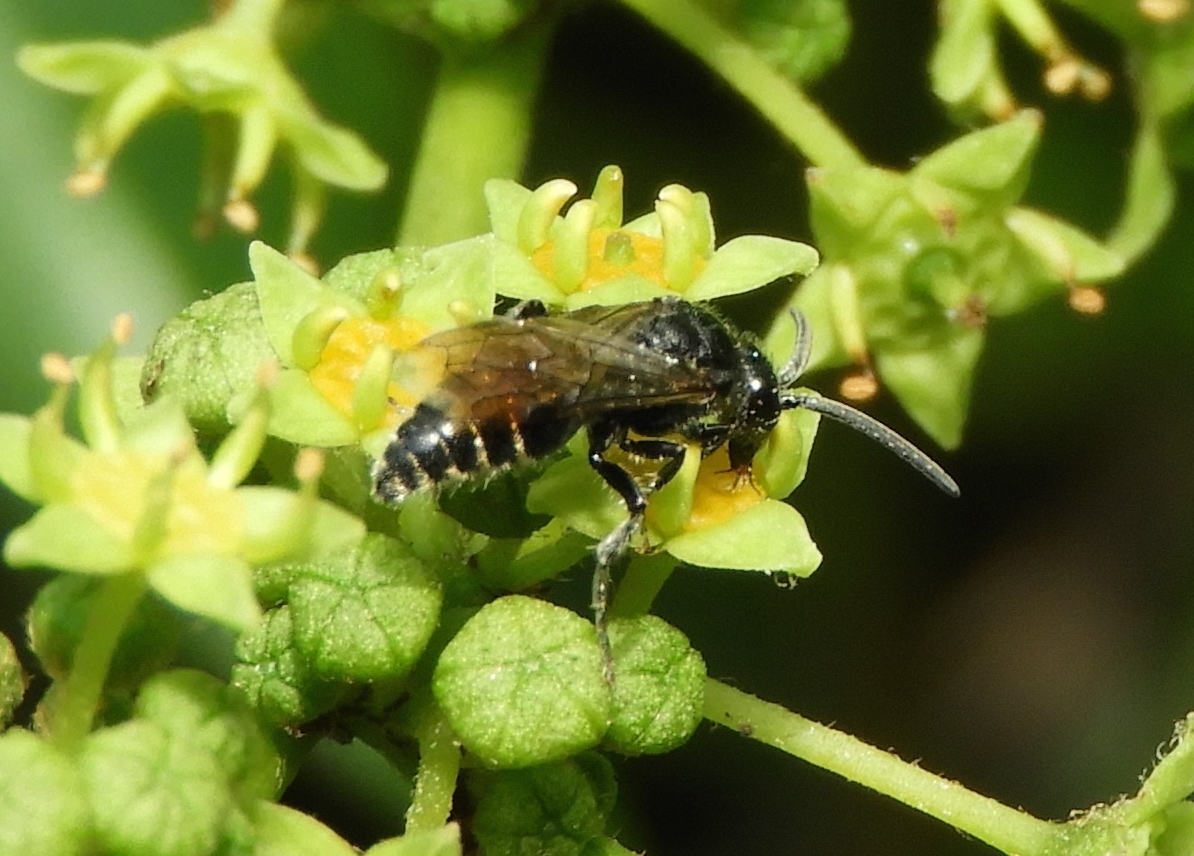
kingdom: Animalia
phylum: Arthropoda
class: Insecta
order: Hymenoptera
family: Tiphiidae
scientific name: Tiphiidae
